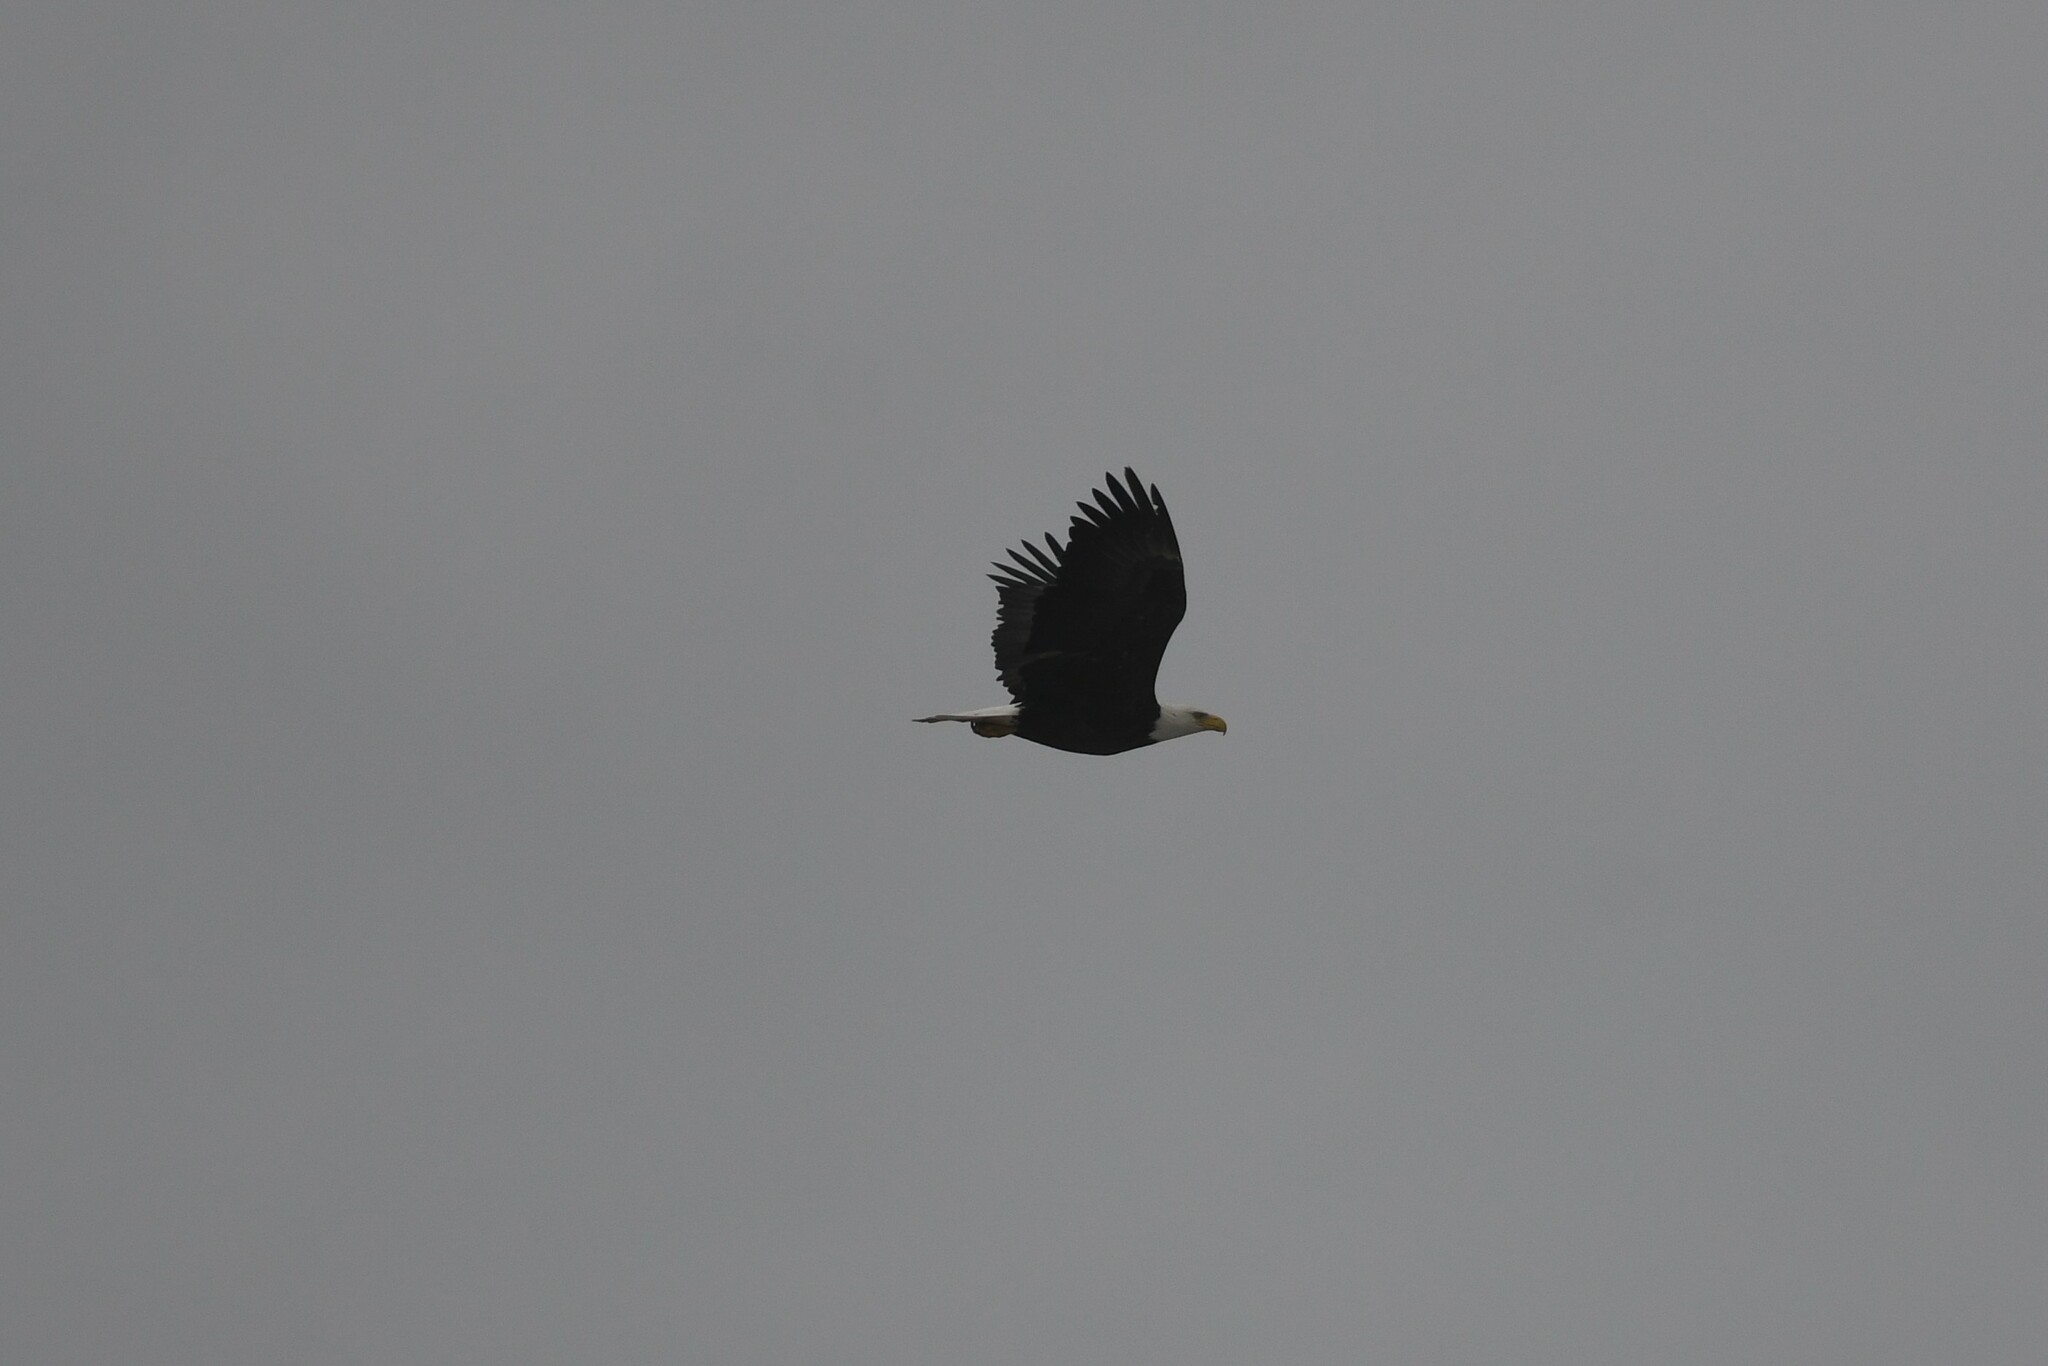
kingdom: Animalia
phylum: Chordata
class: Aves
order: Accipitriformes
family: Accipitridae
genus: Haliaeetus
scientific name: Haliaeetus leucocephalus
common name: Bald eagle
